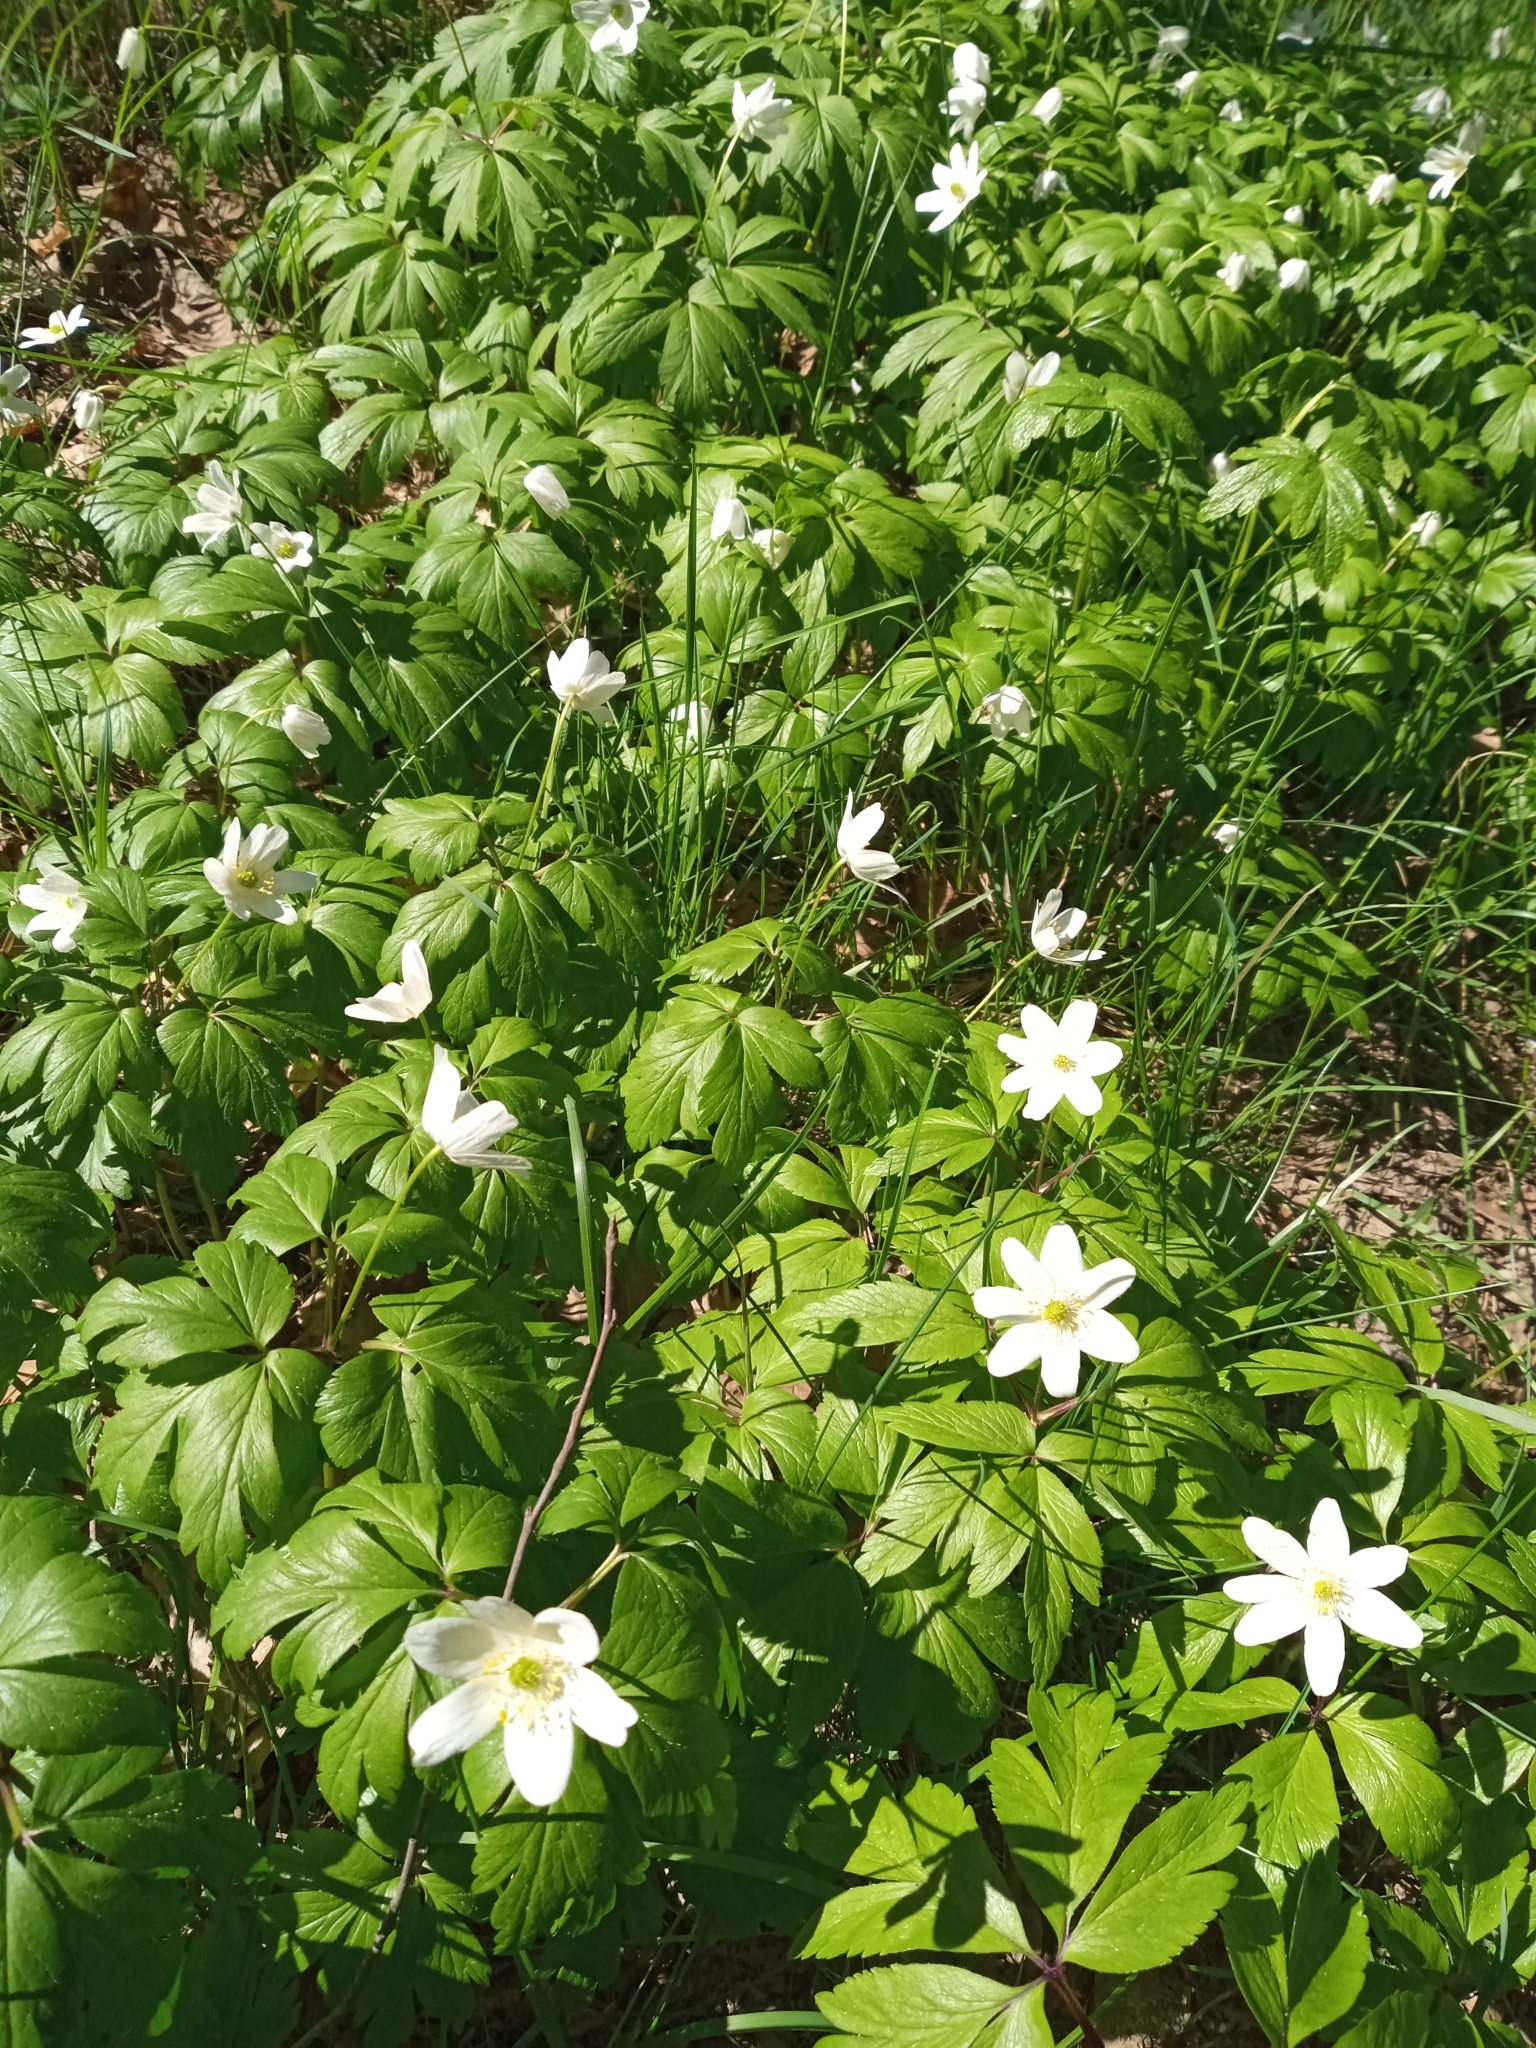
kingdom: Plantae
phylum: Tracheophyta
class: Magnoliopsida
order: Ranunculales
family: Ranunculaceae
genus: Anemone
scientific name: Anemone nemorosa
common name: Wood anemone
